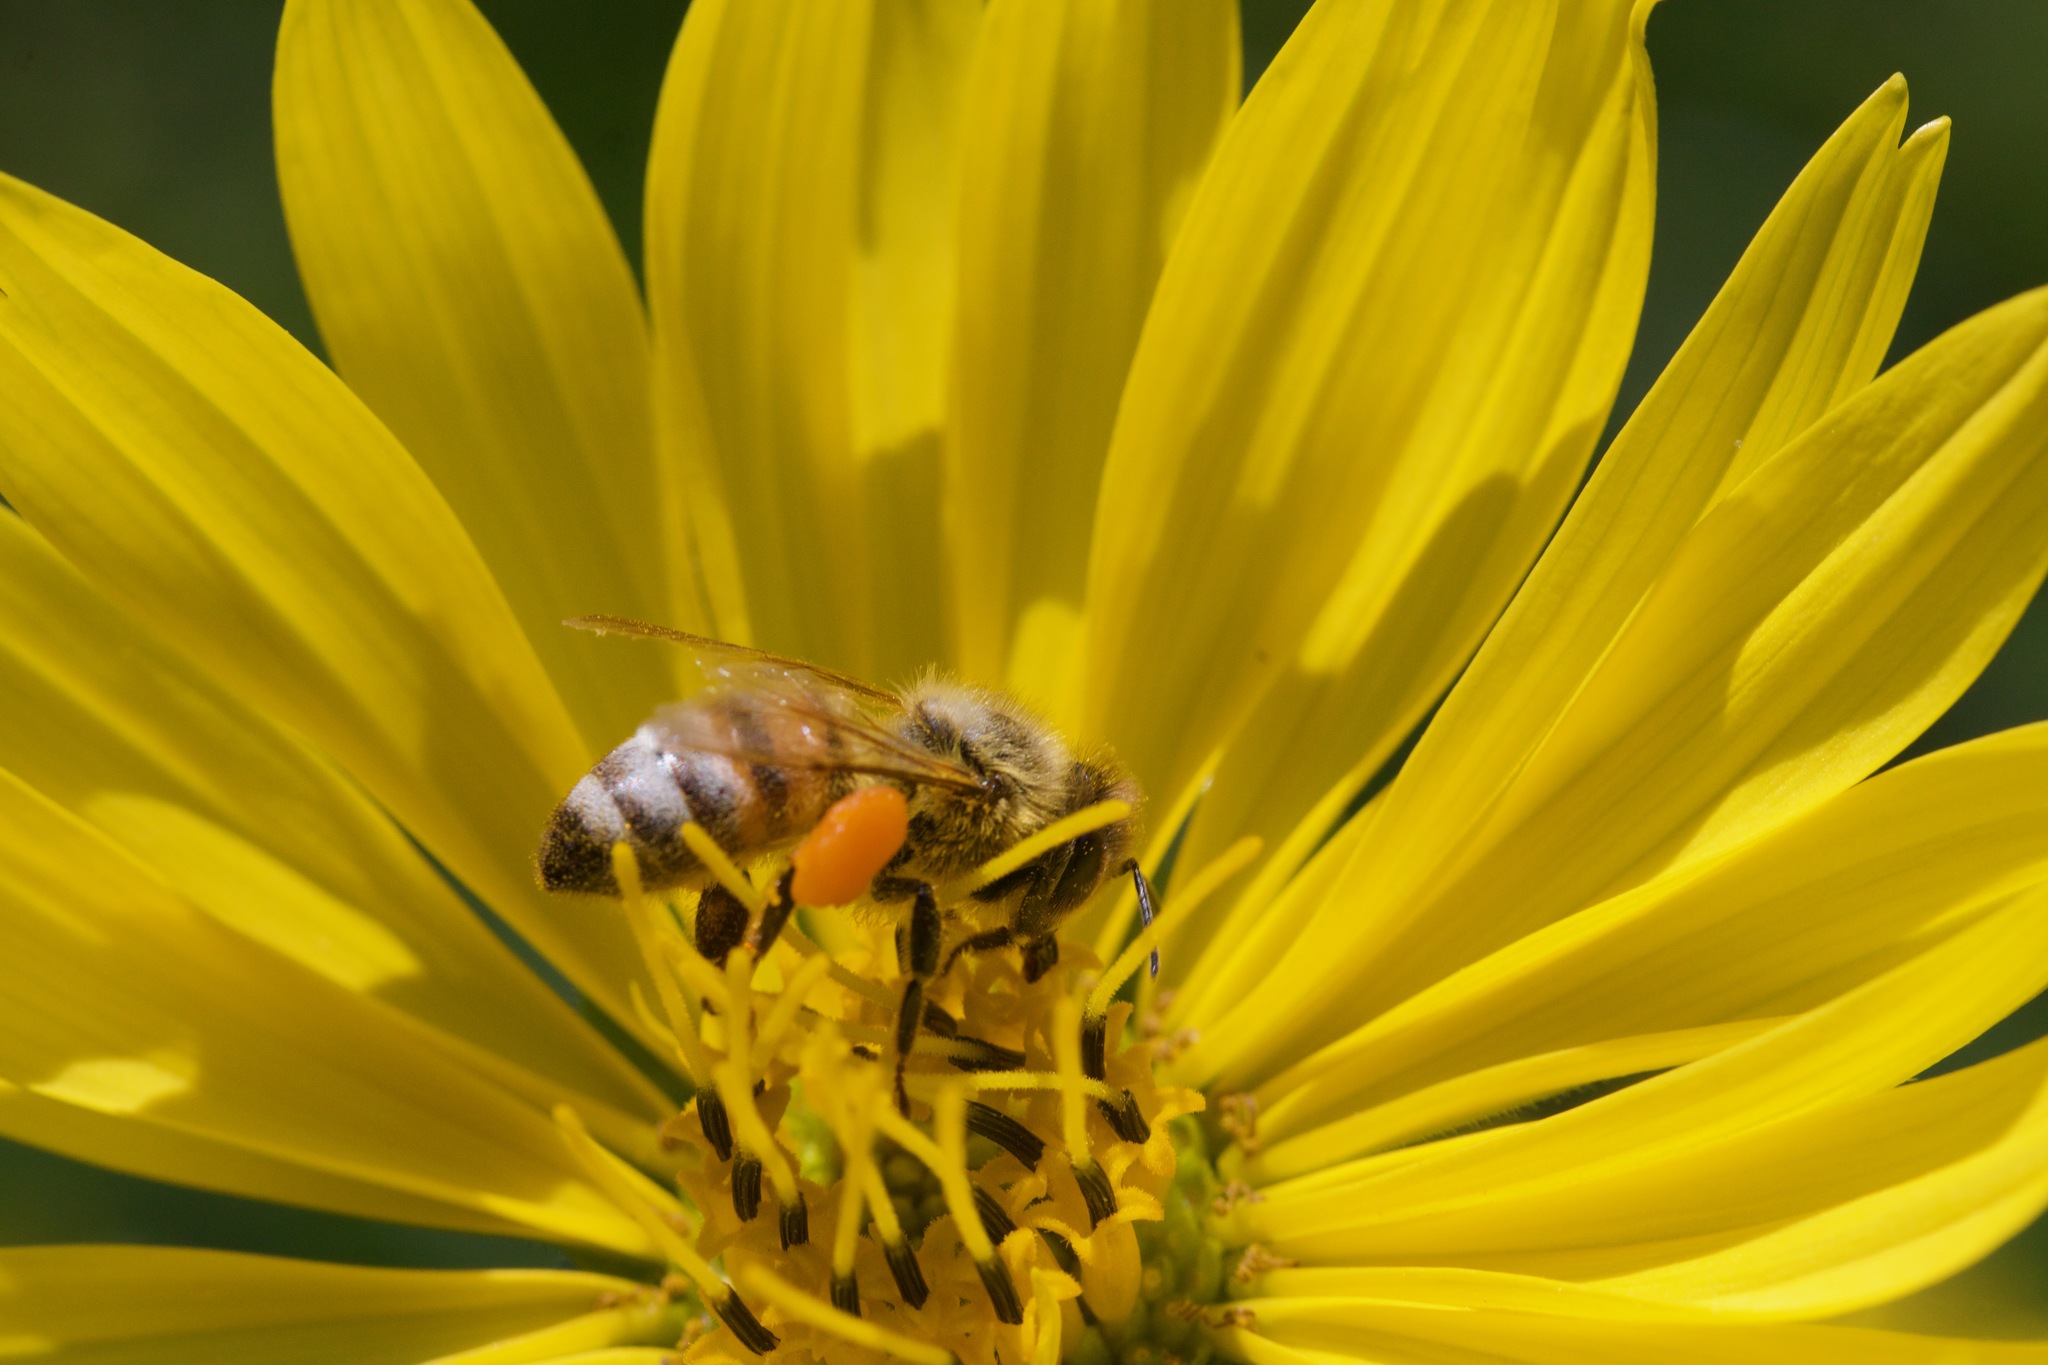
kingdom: Animalia
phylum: Arthropoda
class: Insecta
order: Hymenoptera
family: Apidae
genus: Apis
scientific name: Apis mellifera
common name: Honey bee
